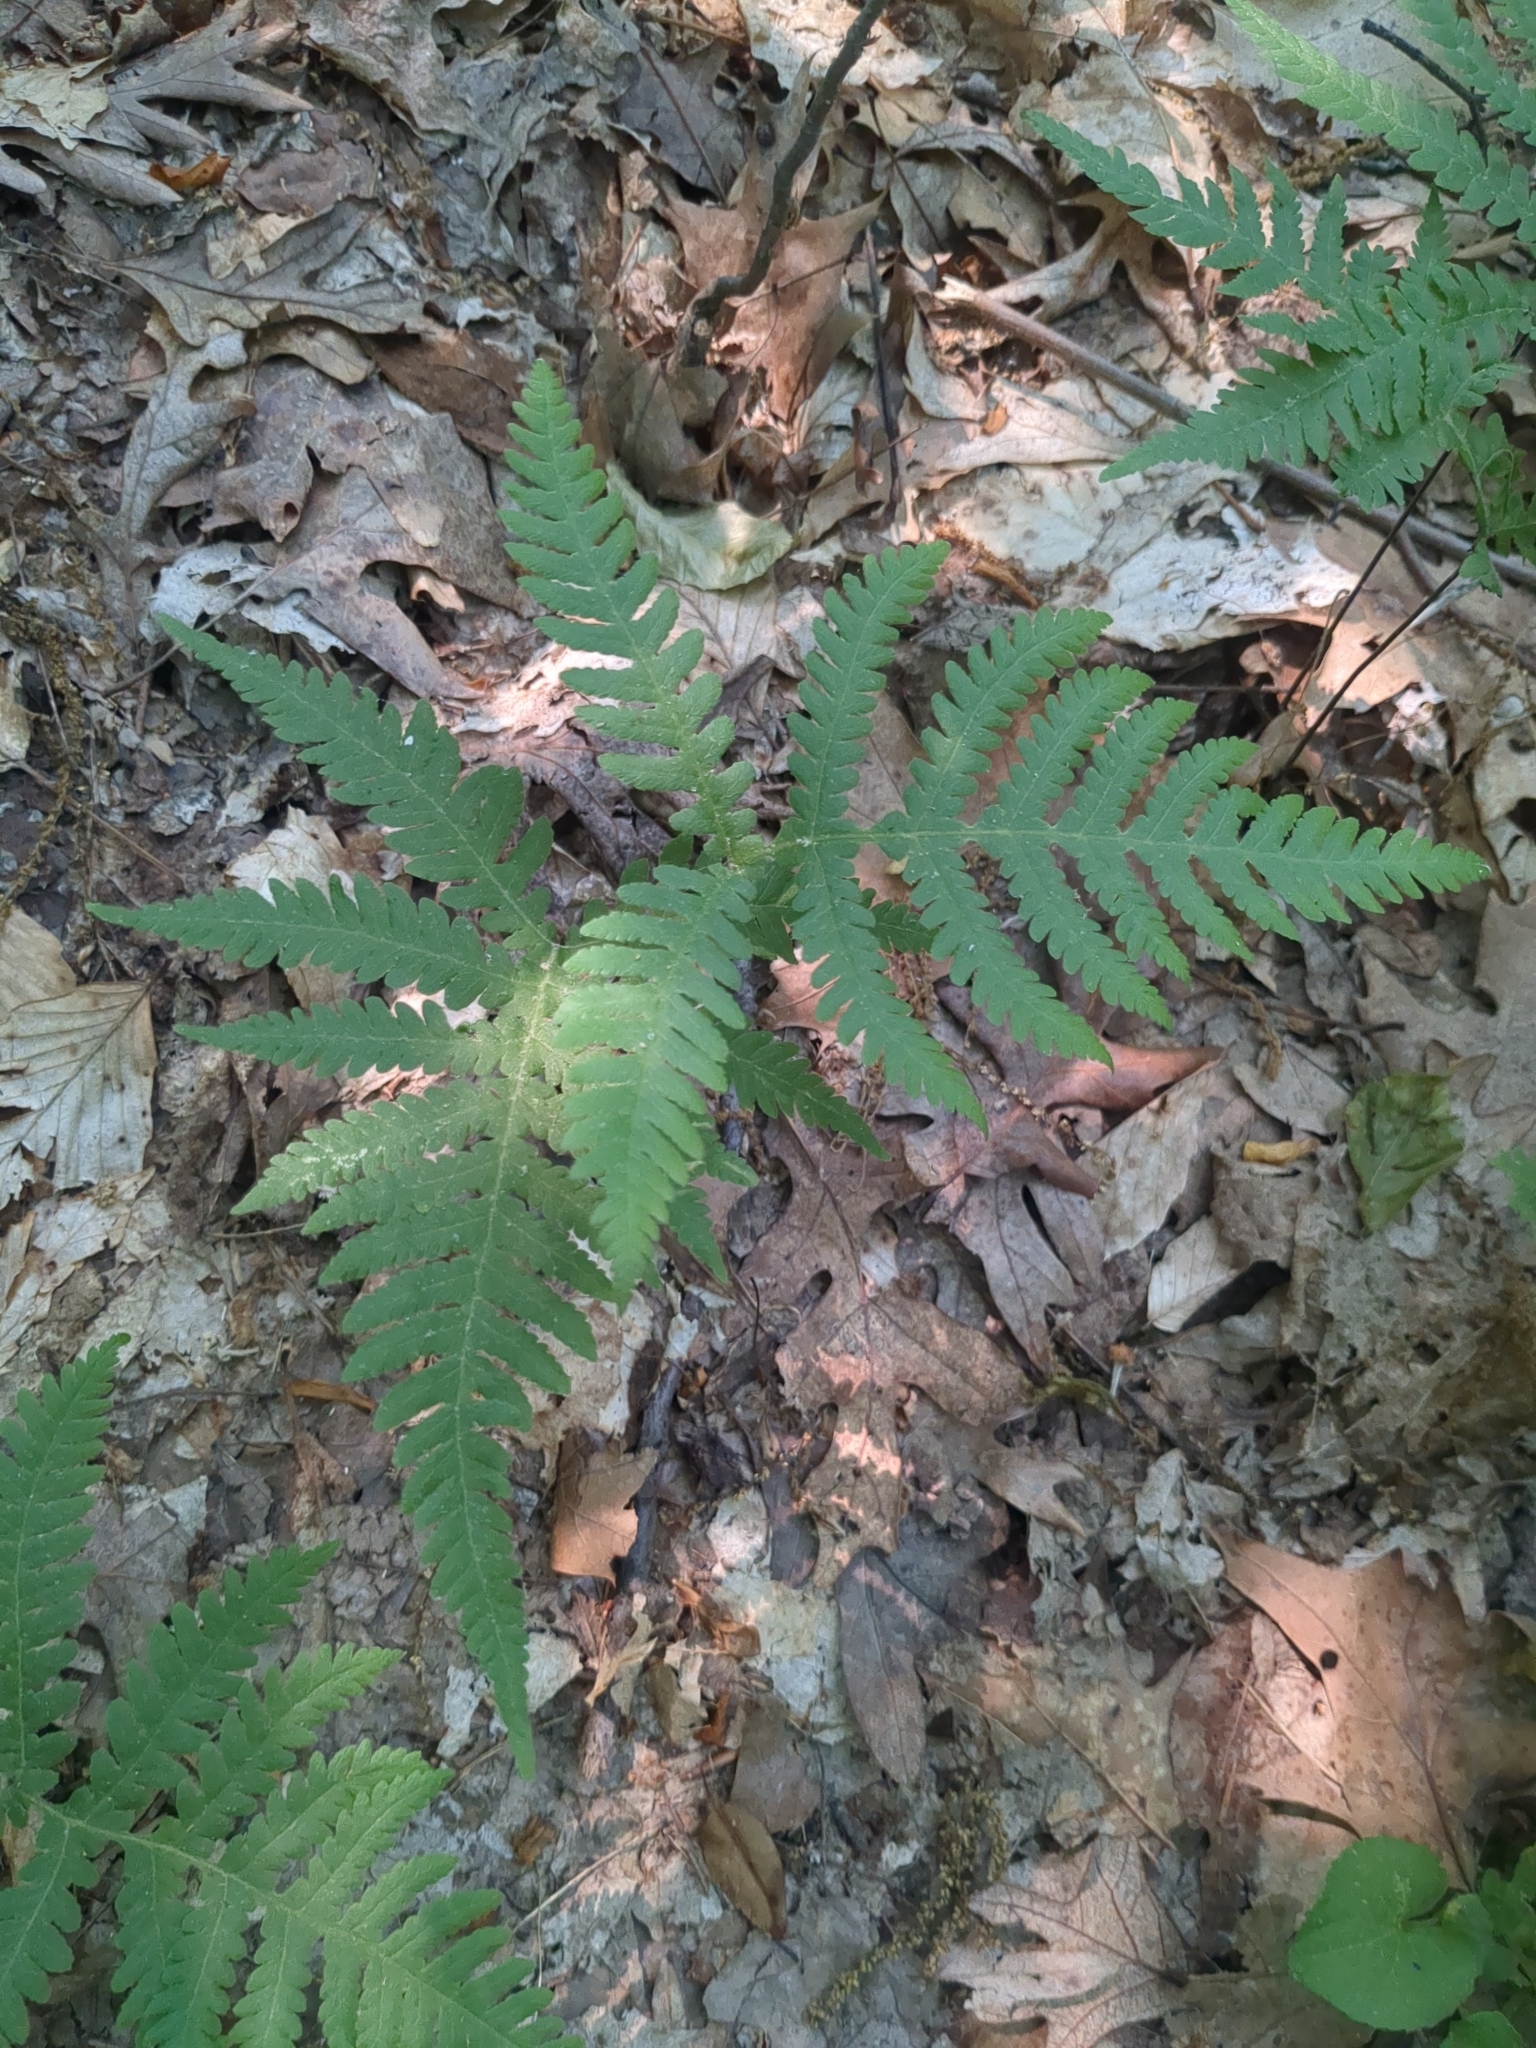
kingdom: Plantae
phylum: Tracheophyta
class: Polypodiopsida
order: Polypodiales
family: Thelypteridaceae
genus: Phegopteris
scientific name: Phegopteris hexagonoptera
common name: Broad beech fern
